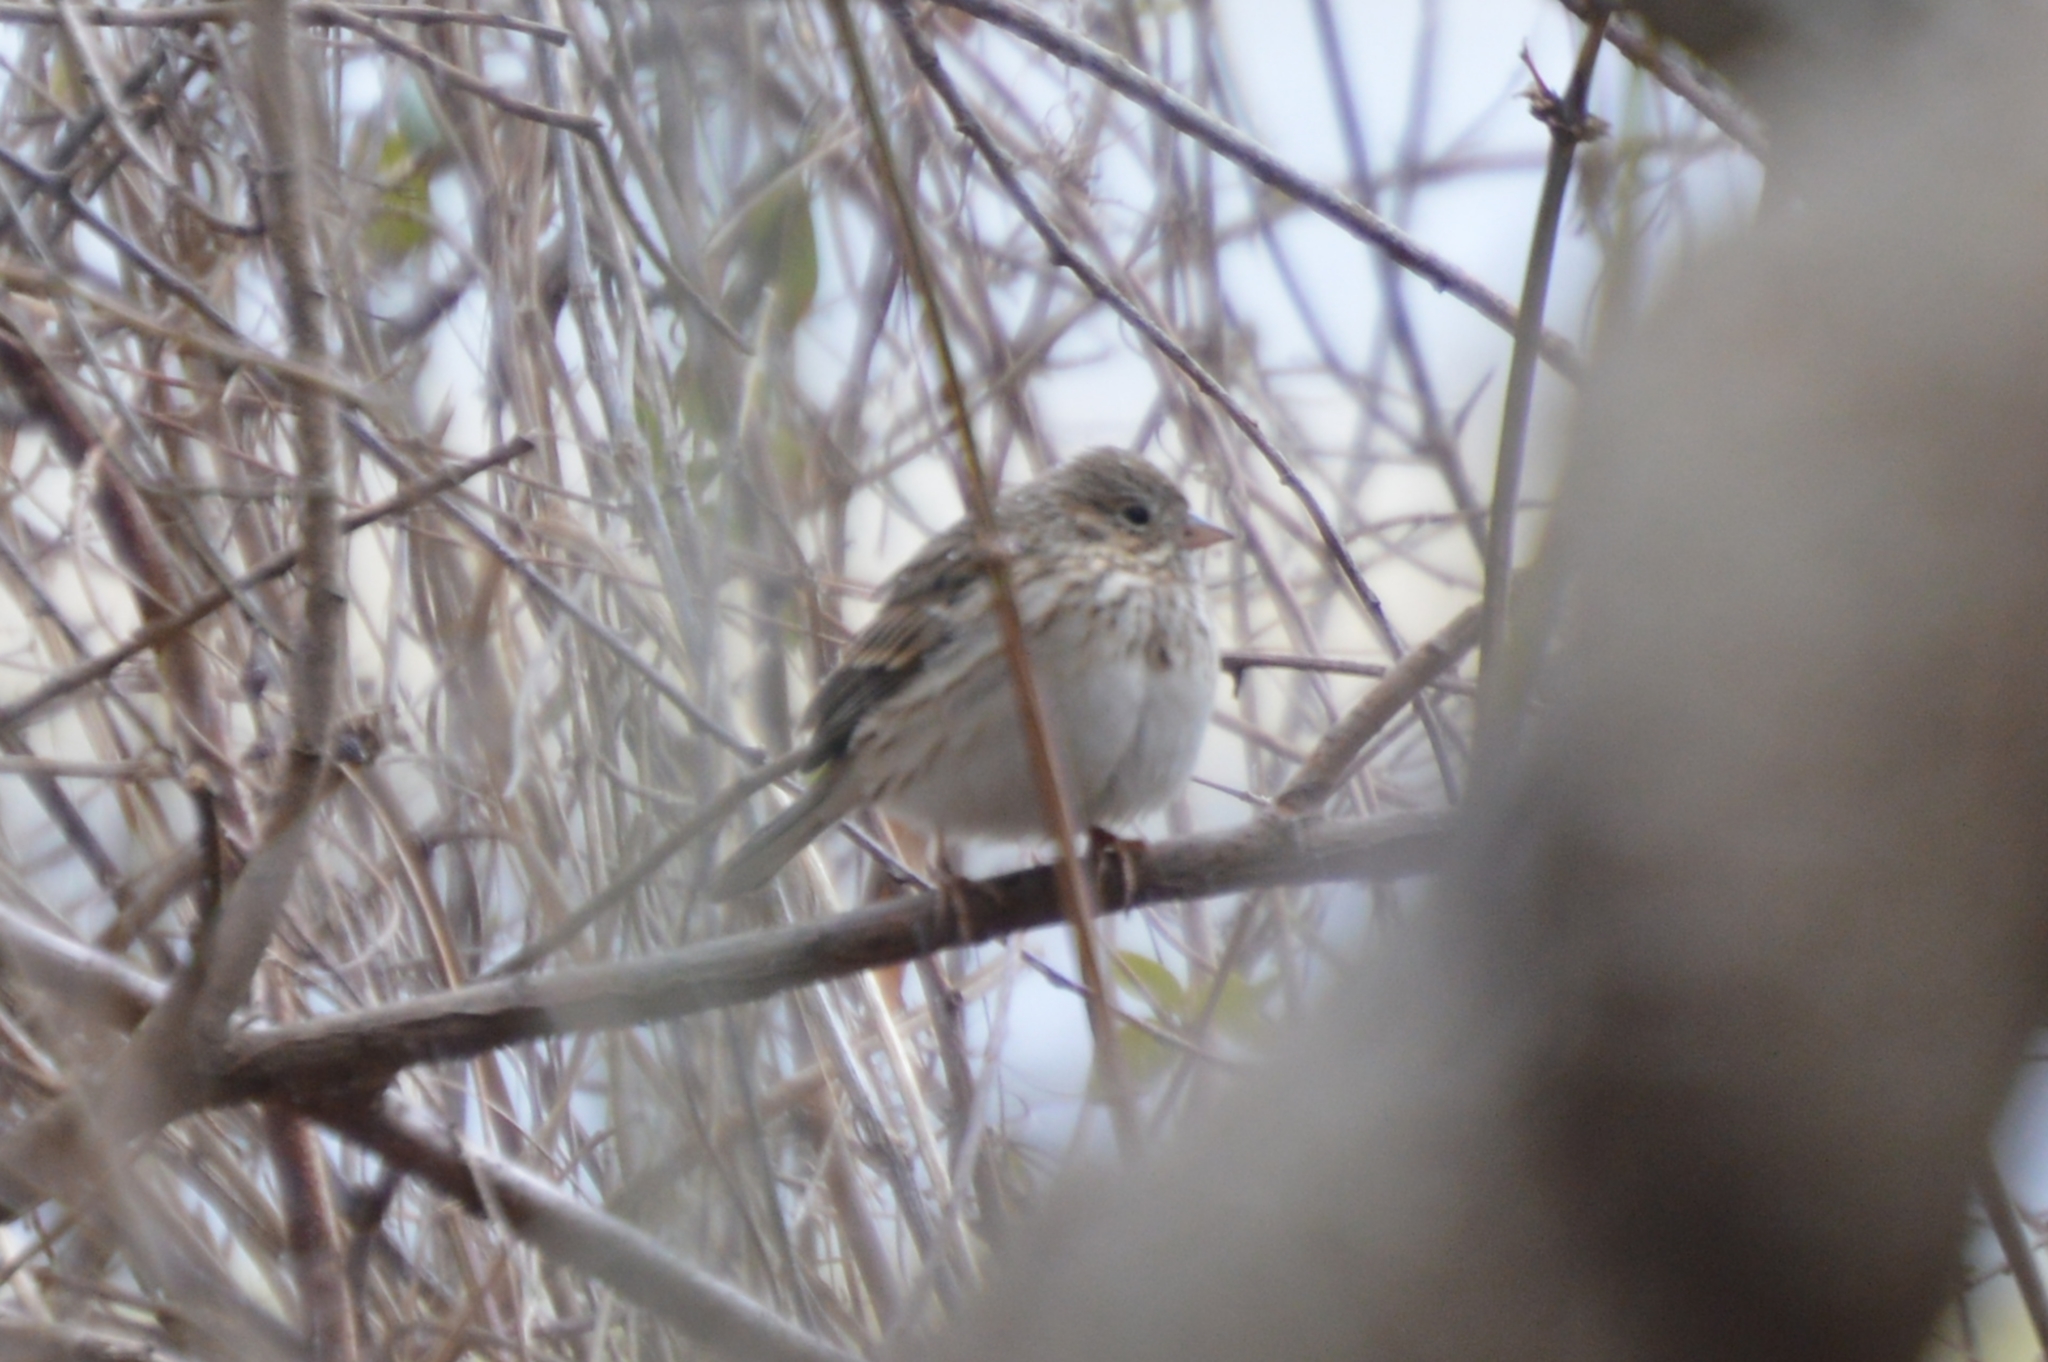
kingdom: Animalia
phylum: Chordata
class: Aves
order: Passeriformes
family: Passerellidae
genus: Pooecetes
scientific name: Pooecetes gramineus
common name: Vesper sparrow
